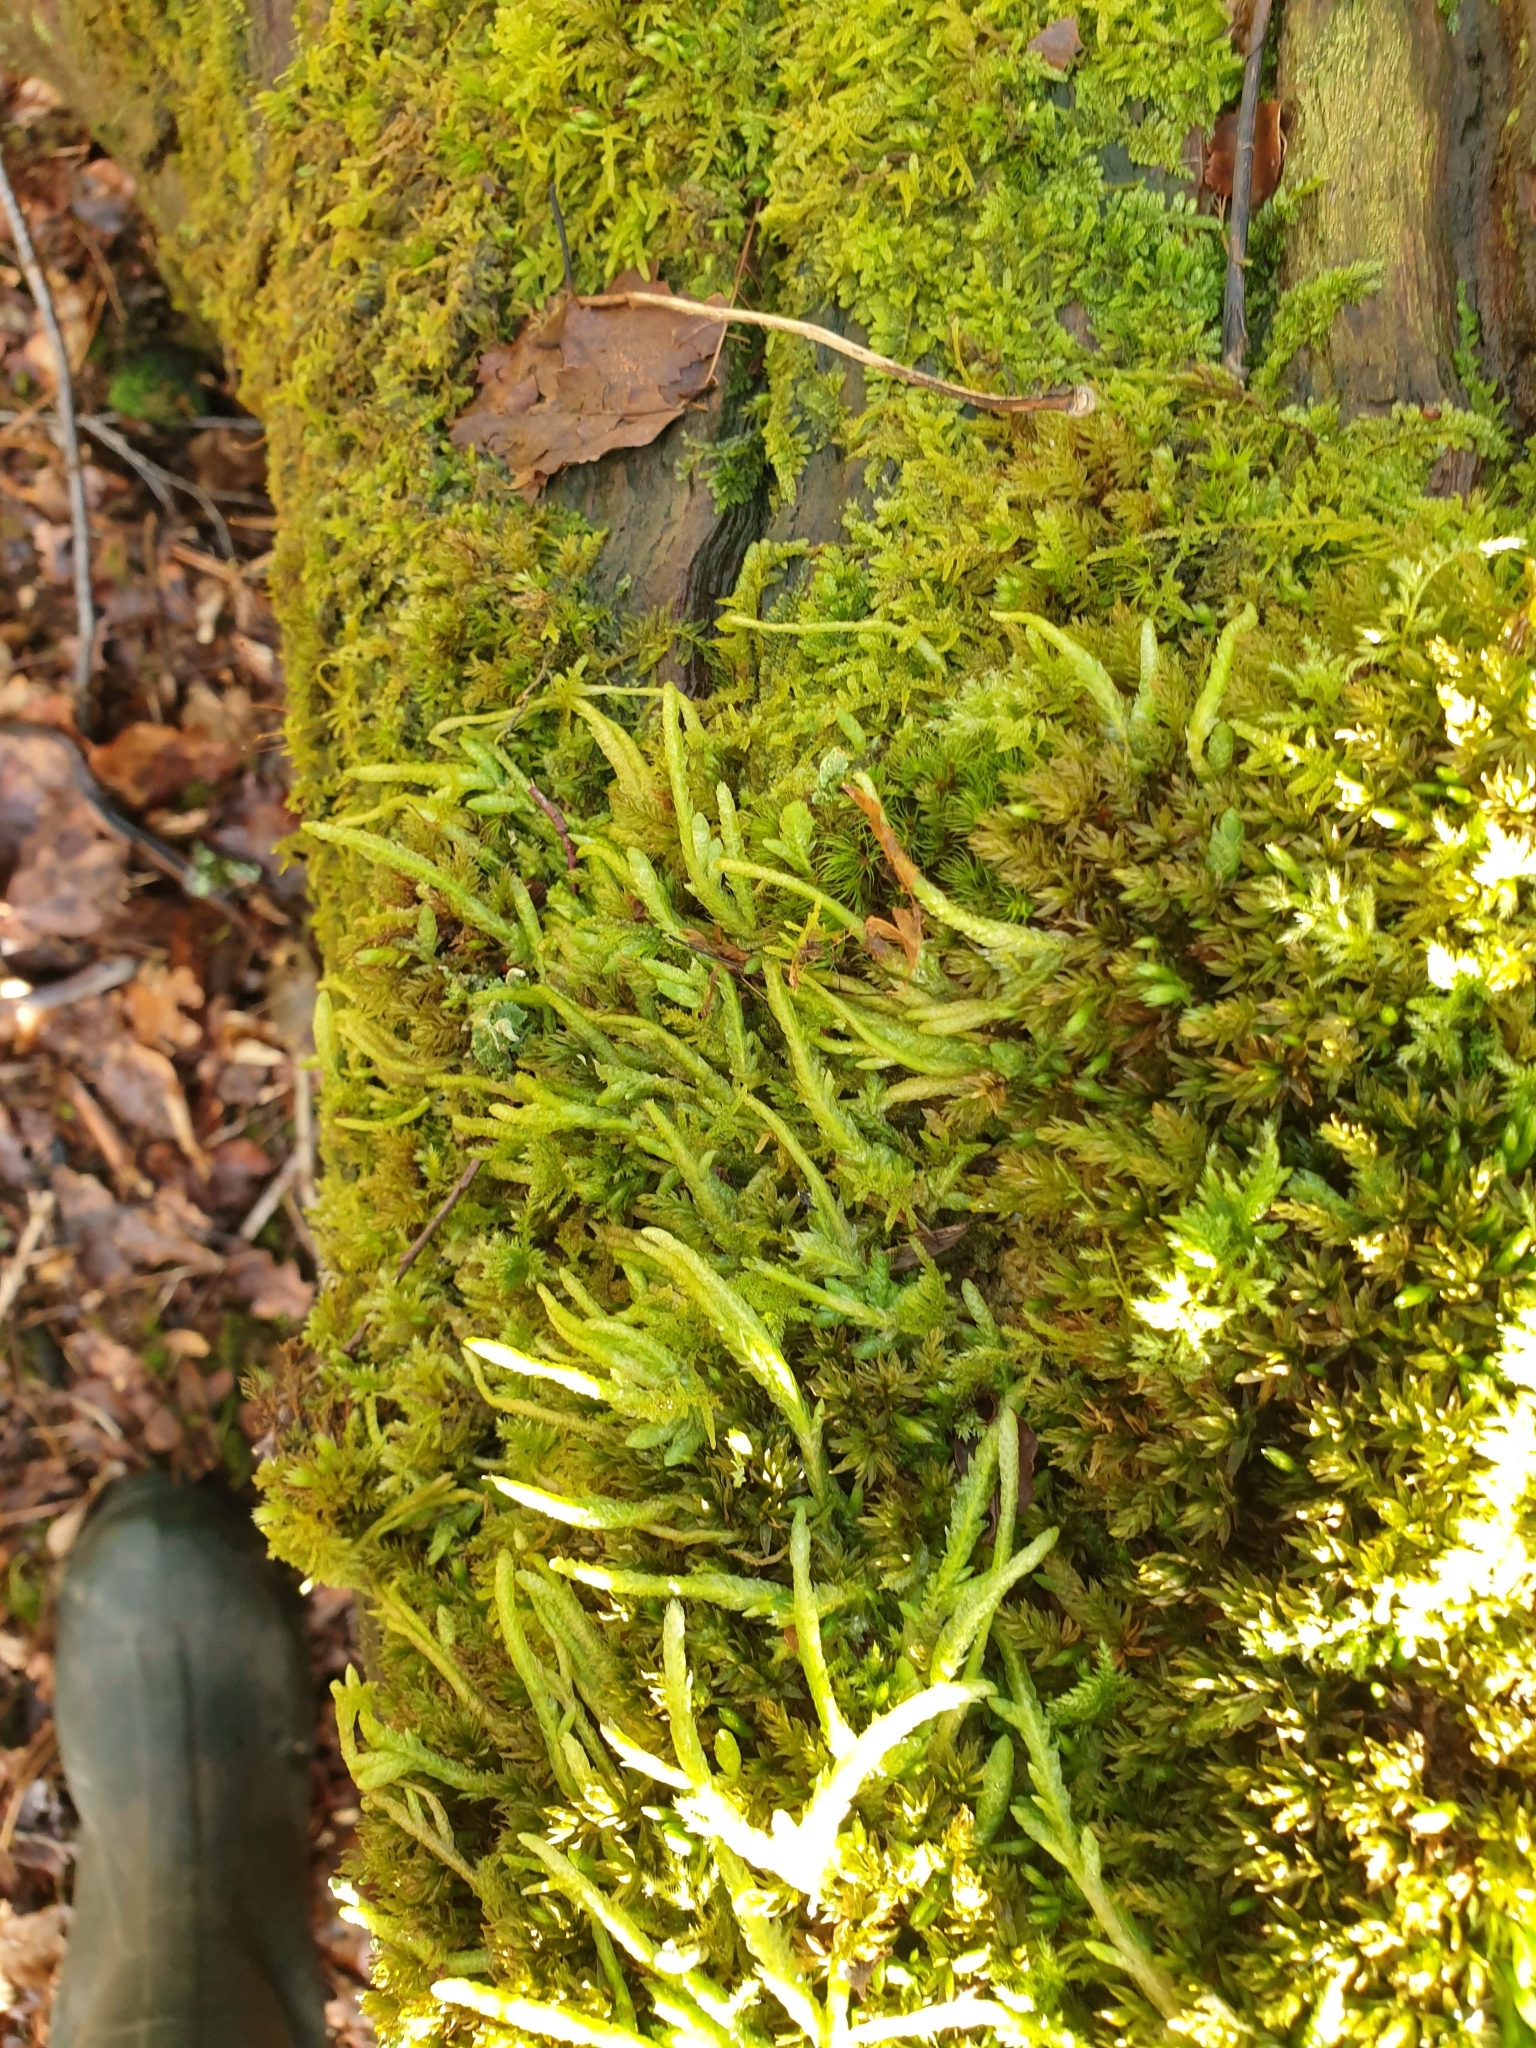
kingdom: Plantae
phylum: Bryophyta
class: Bryopsida
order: Hypnales
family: Plagiotheciaceae
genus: Plagiothecium
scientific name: Plagiothecium undulatum
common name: Waved silk-moss
